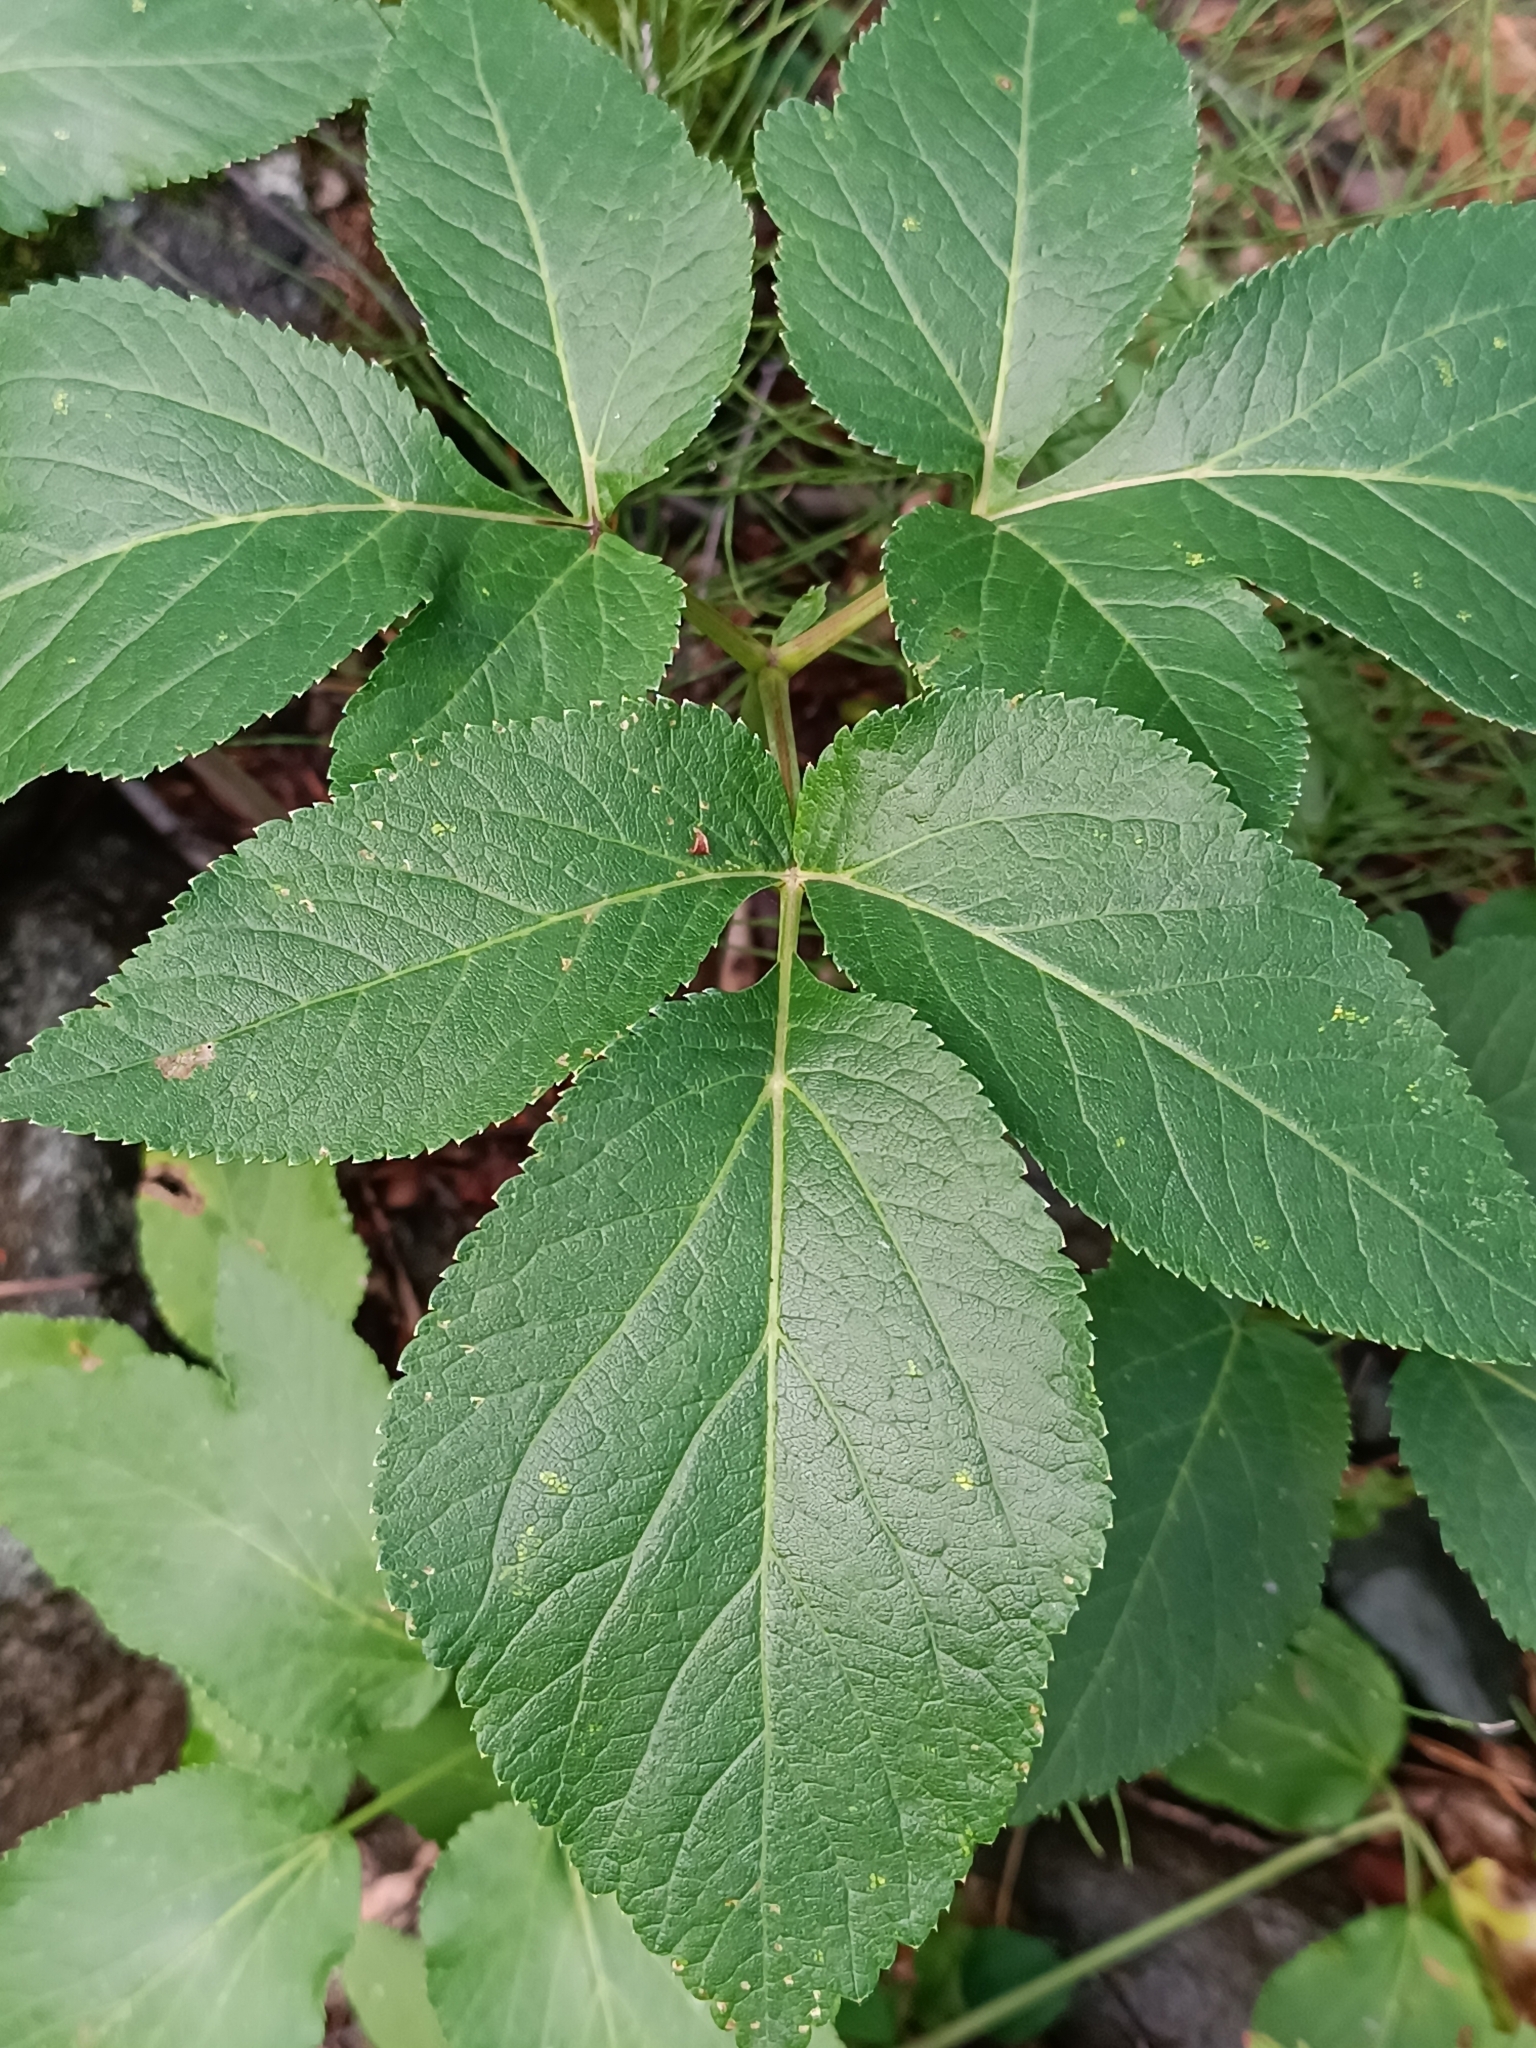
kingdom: Plantae
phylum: Tracheophyta
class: Magnoliopsida
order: Apiales
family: Apiaceae
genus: Aegopodium
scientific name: Aegopodium podagraria
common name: Ground-elder
